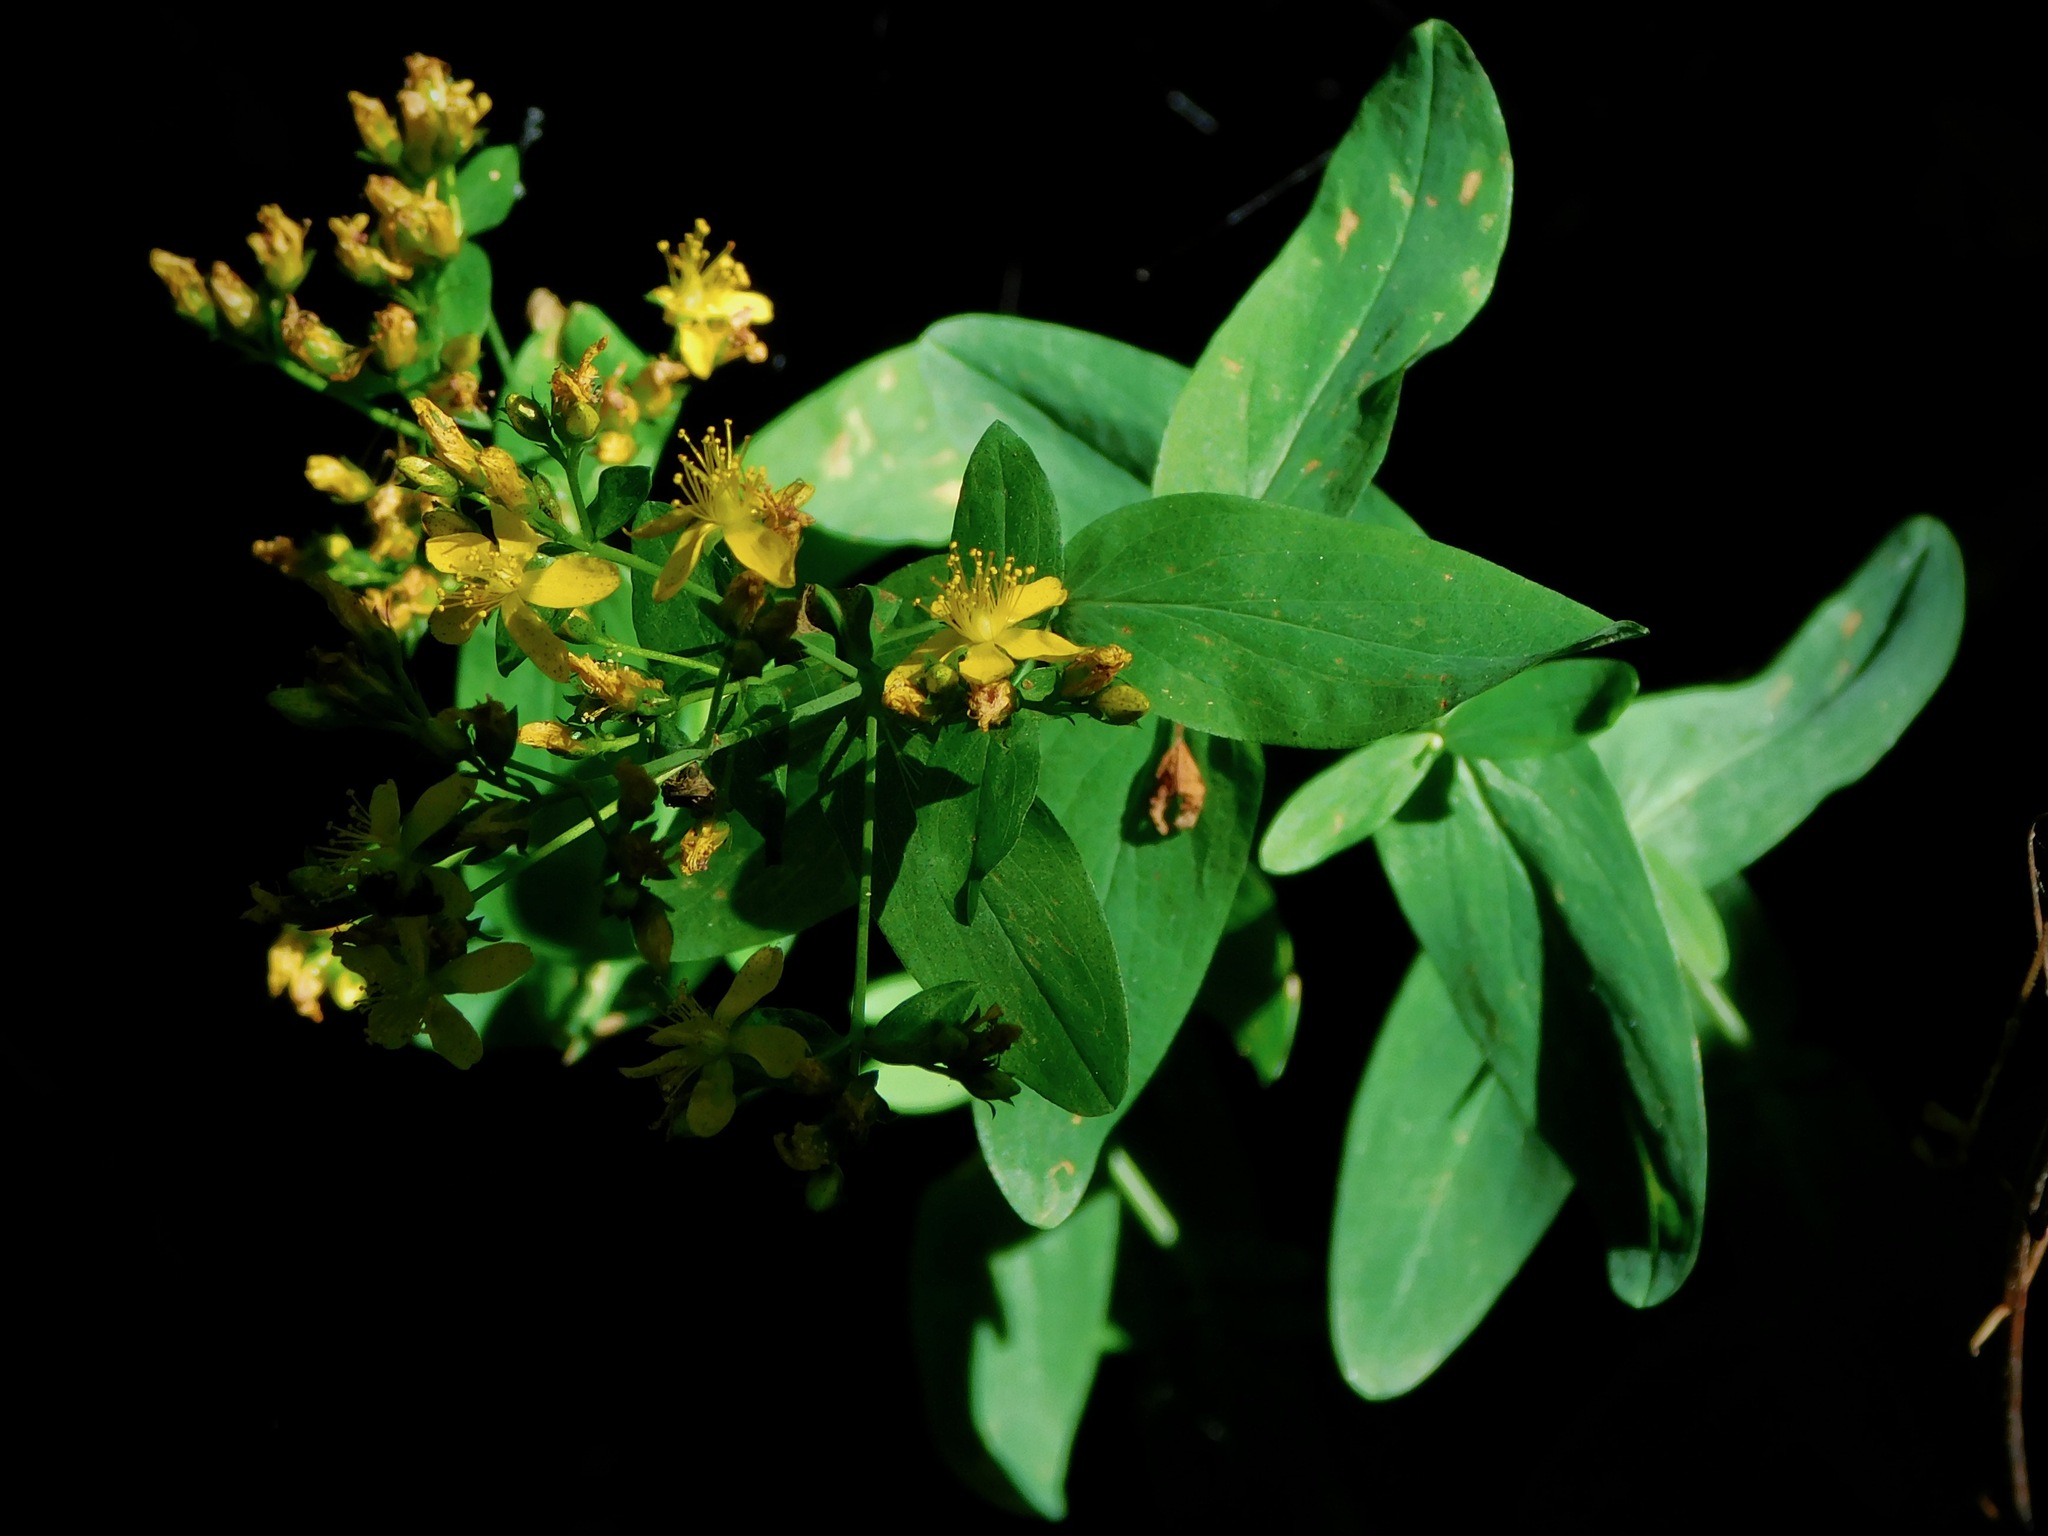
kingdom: Plantae
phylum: Tracheophyta
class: Magnoliopsida
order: Malpighiales
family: Hypericaceae
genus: Hypericum
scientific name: Hypericum punctatum
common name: Spotted st. john's-wort
